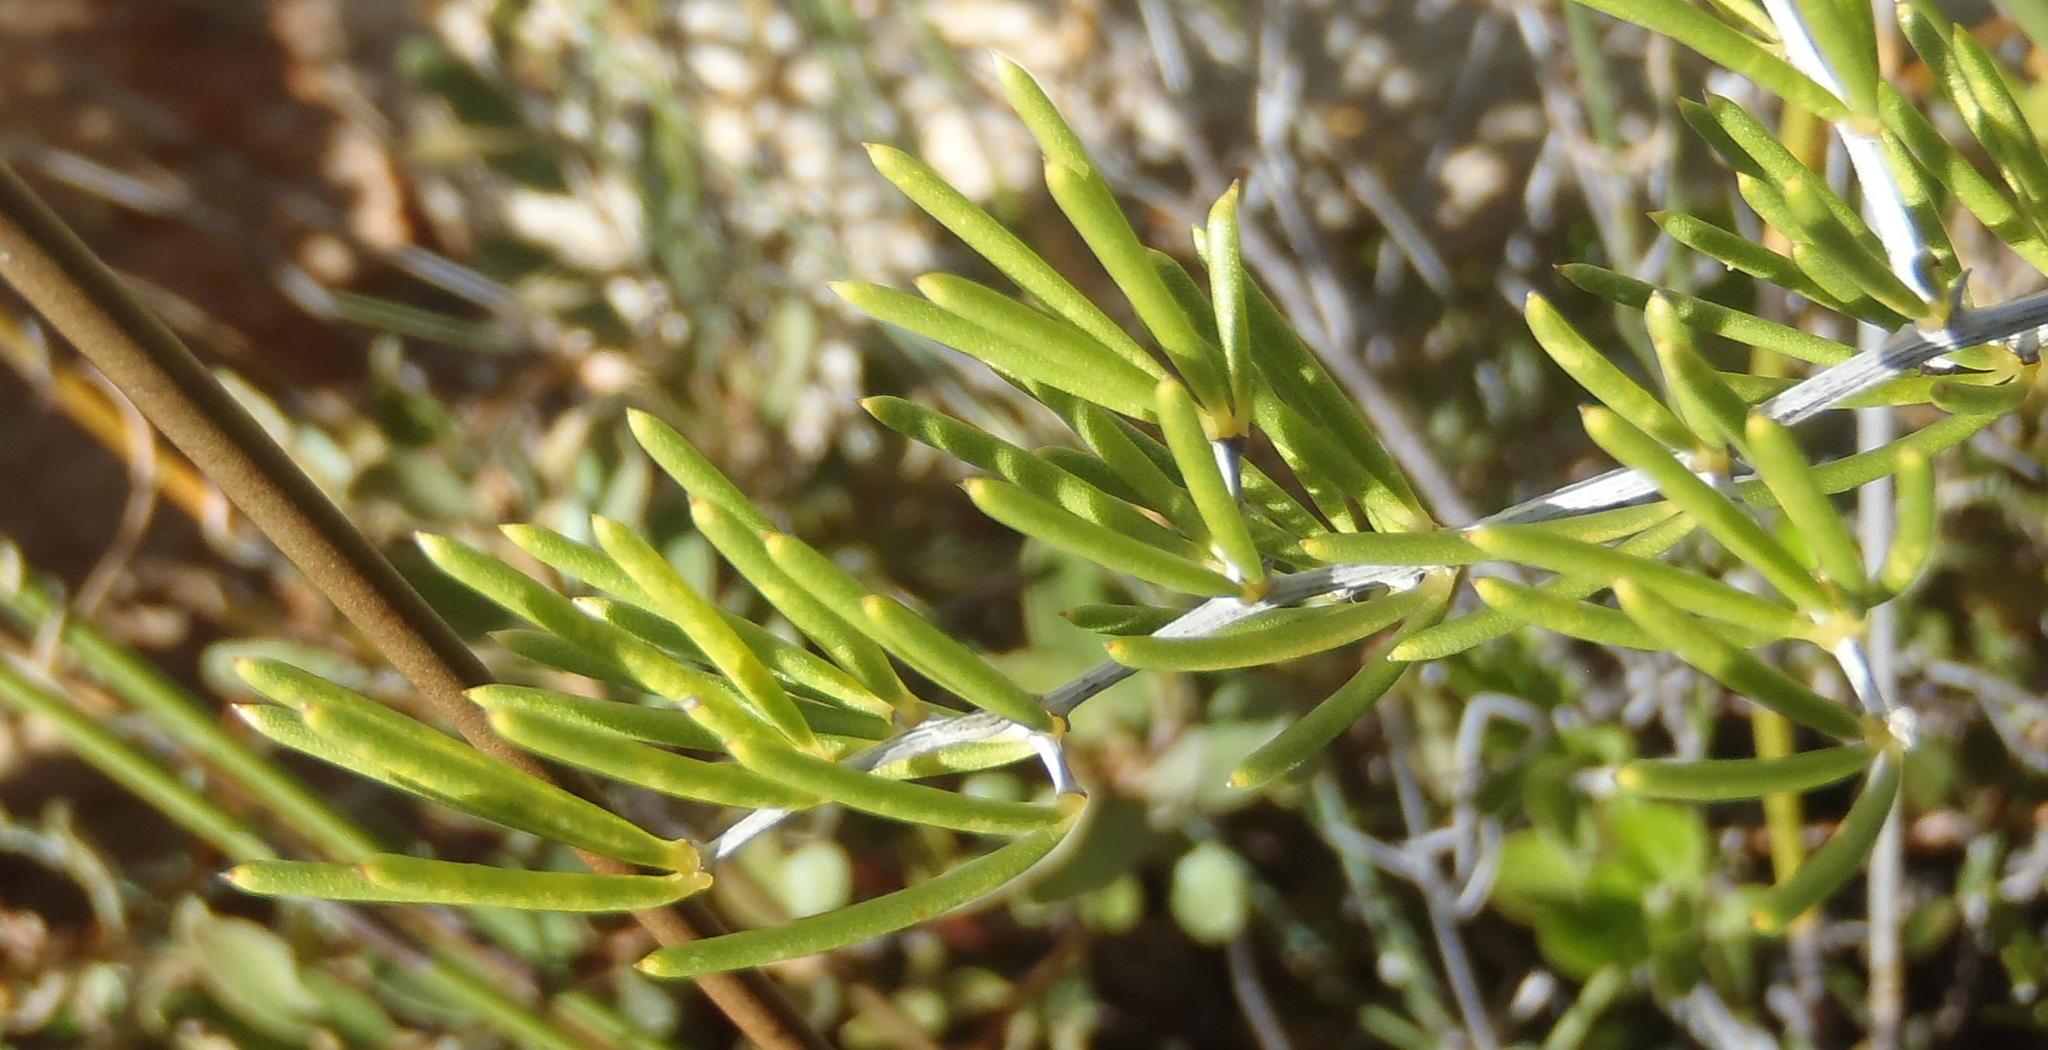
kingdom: Plantae
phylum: Tracheophyta
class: Liliopsida
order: Asparagales
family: Asparagaceae
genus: Asparagus
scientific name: Asparagus lignosus
